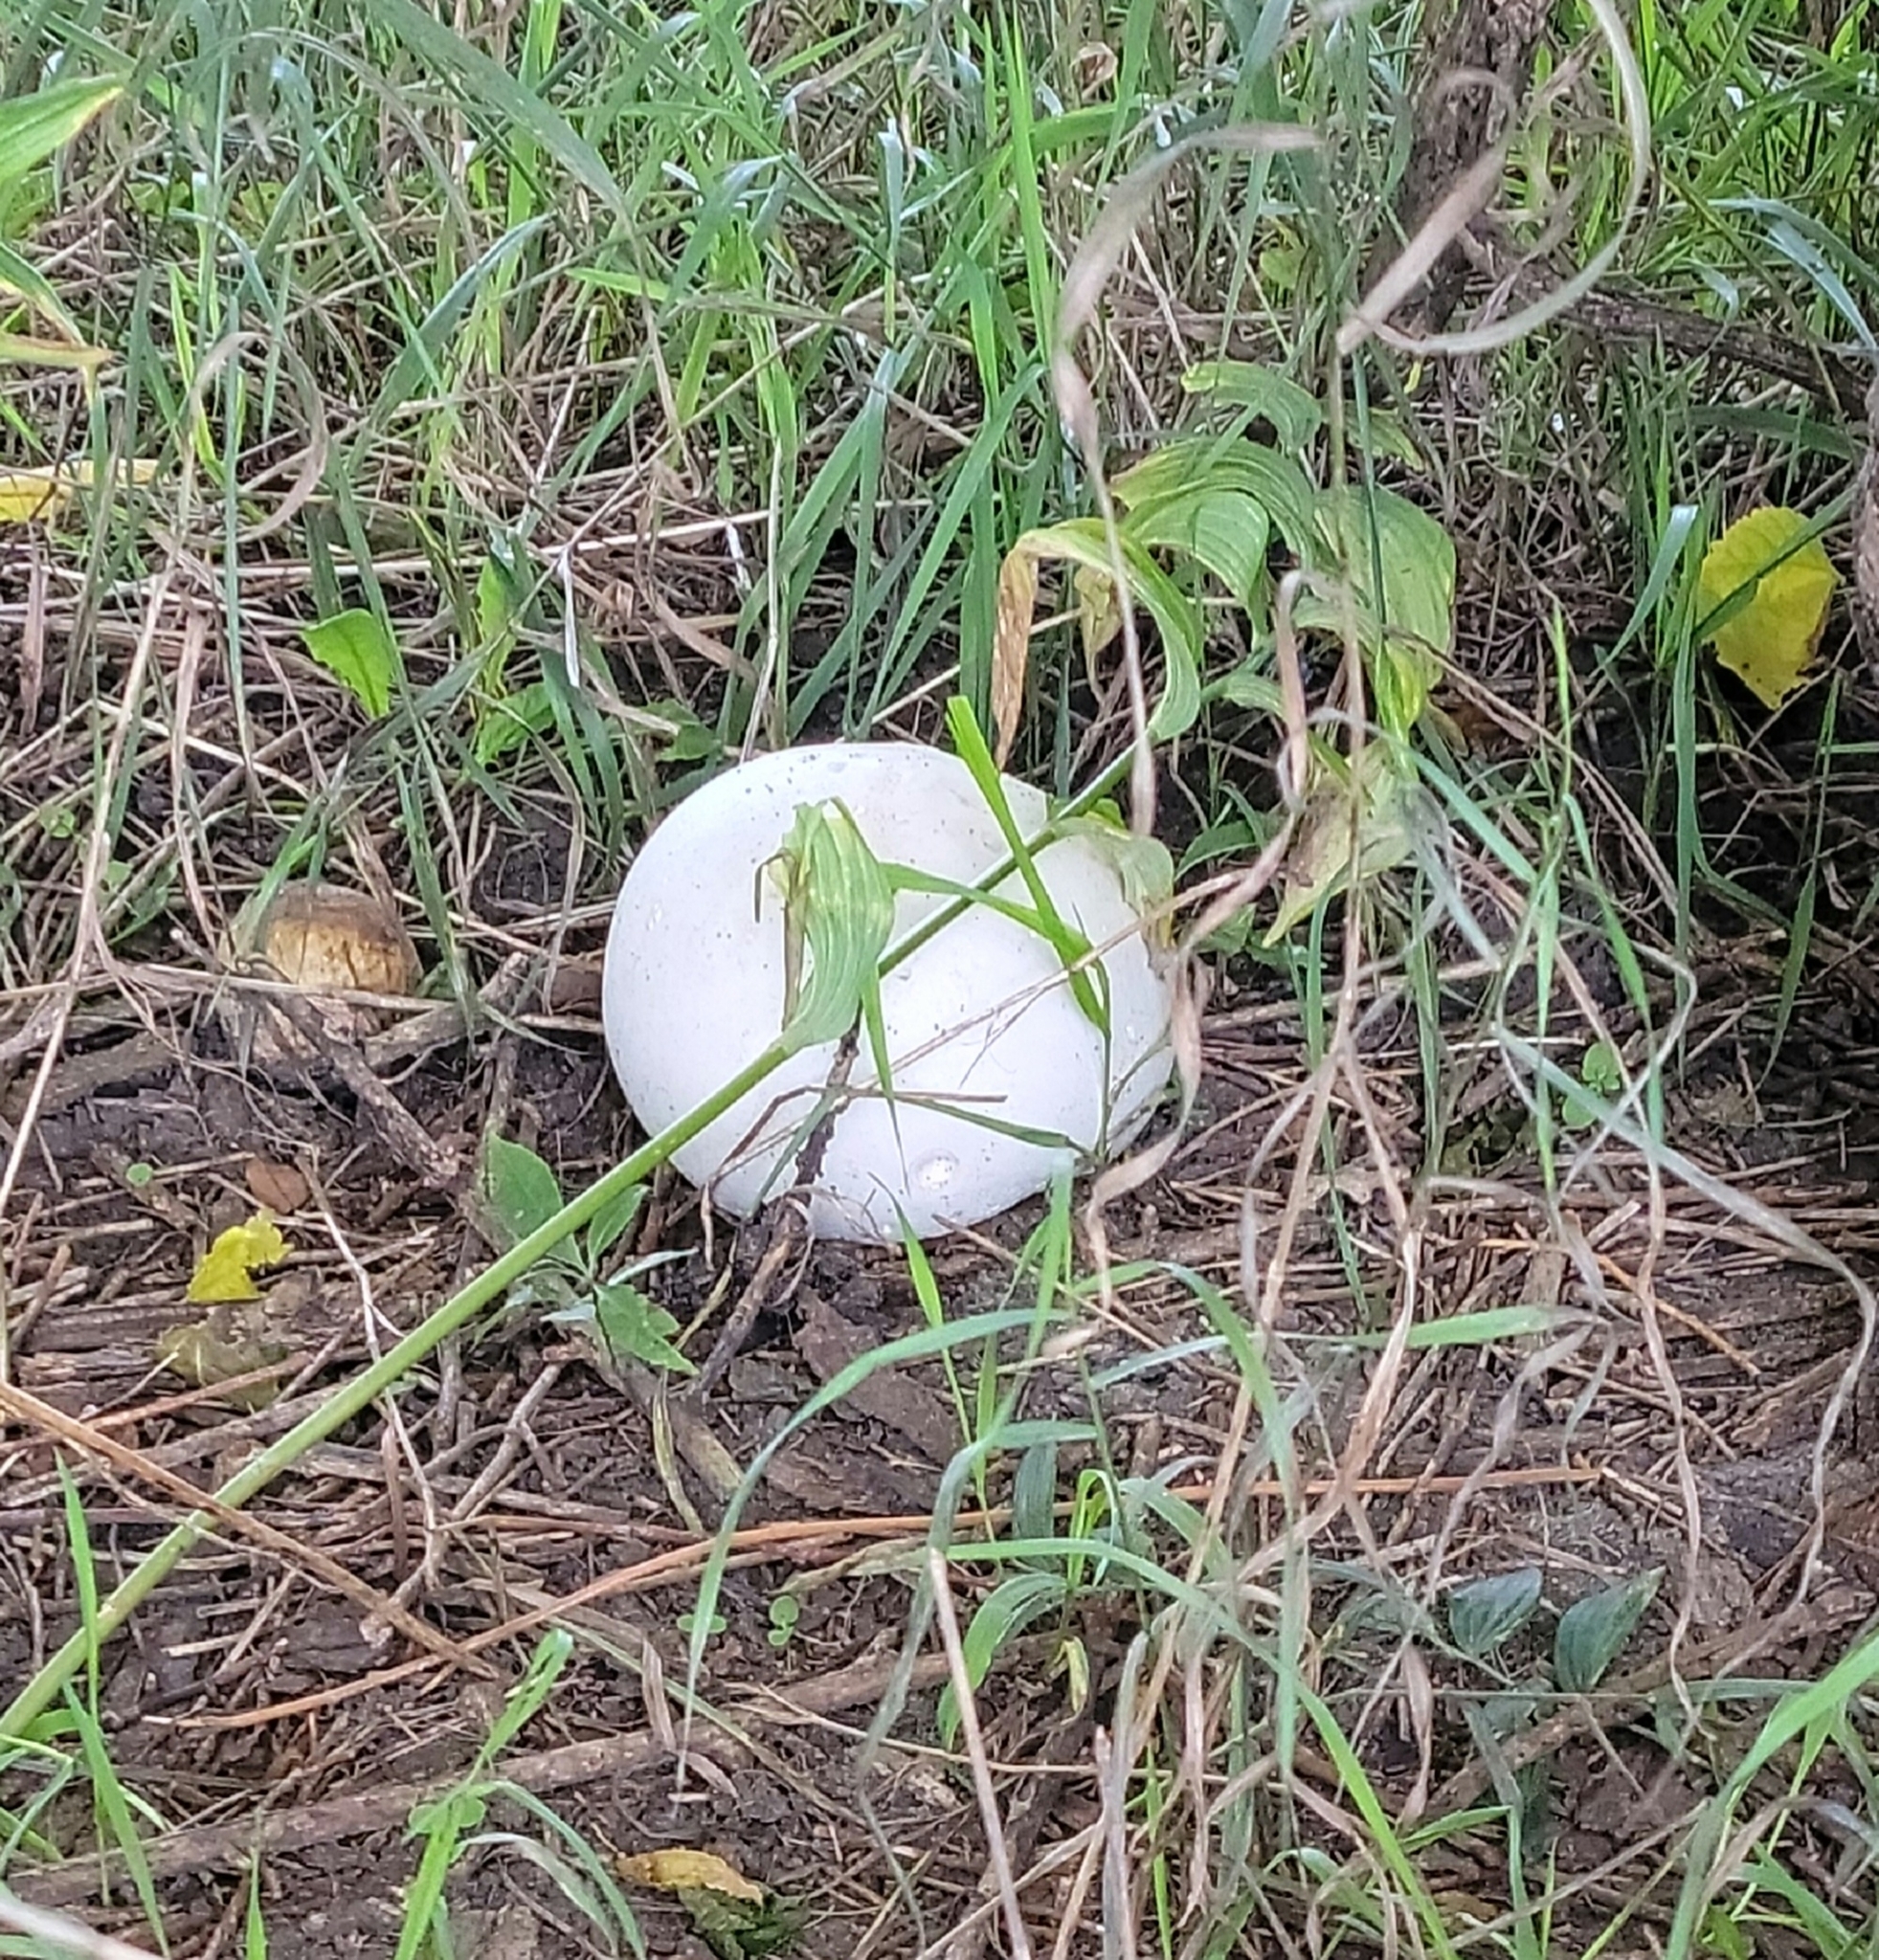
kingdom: Fungi
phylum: Basidiomycota
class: Agaricomycetes
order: Agaricales
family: Lycoperdaceae
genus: Calvatia
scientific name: Calvatia gigantea
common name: Giant puffball
